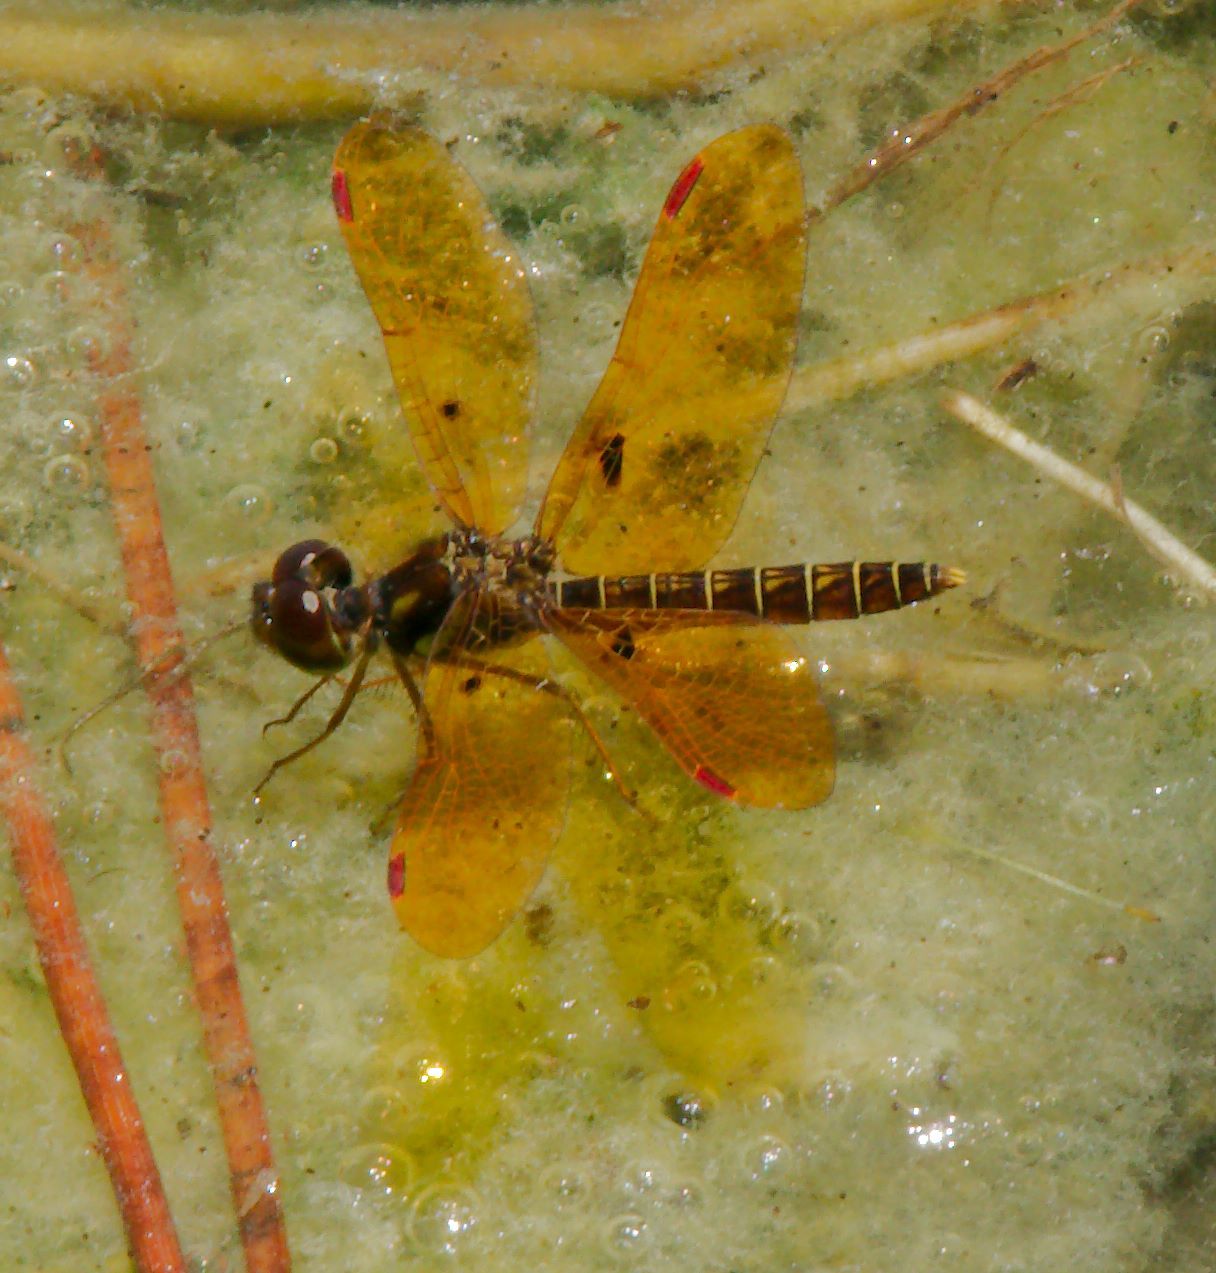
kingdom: Animalia
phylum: Arthropoda
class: Insecta
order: Odonata
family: Libellulidae
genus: Perithemis
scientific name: Perithemis tenera
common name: Eastern amberwing
